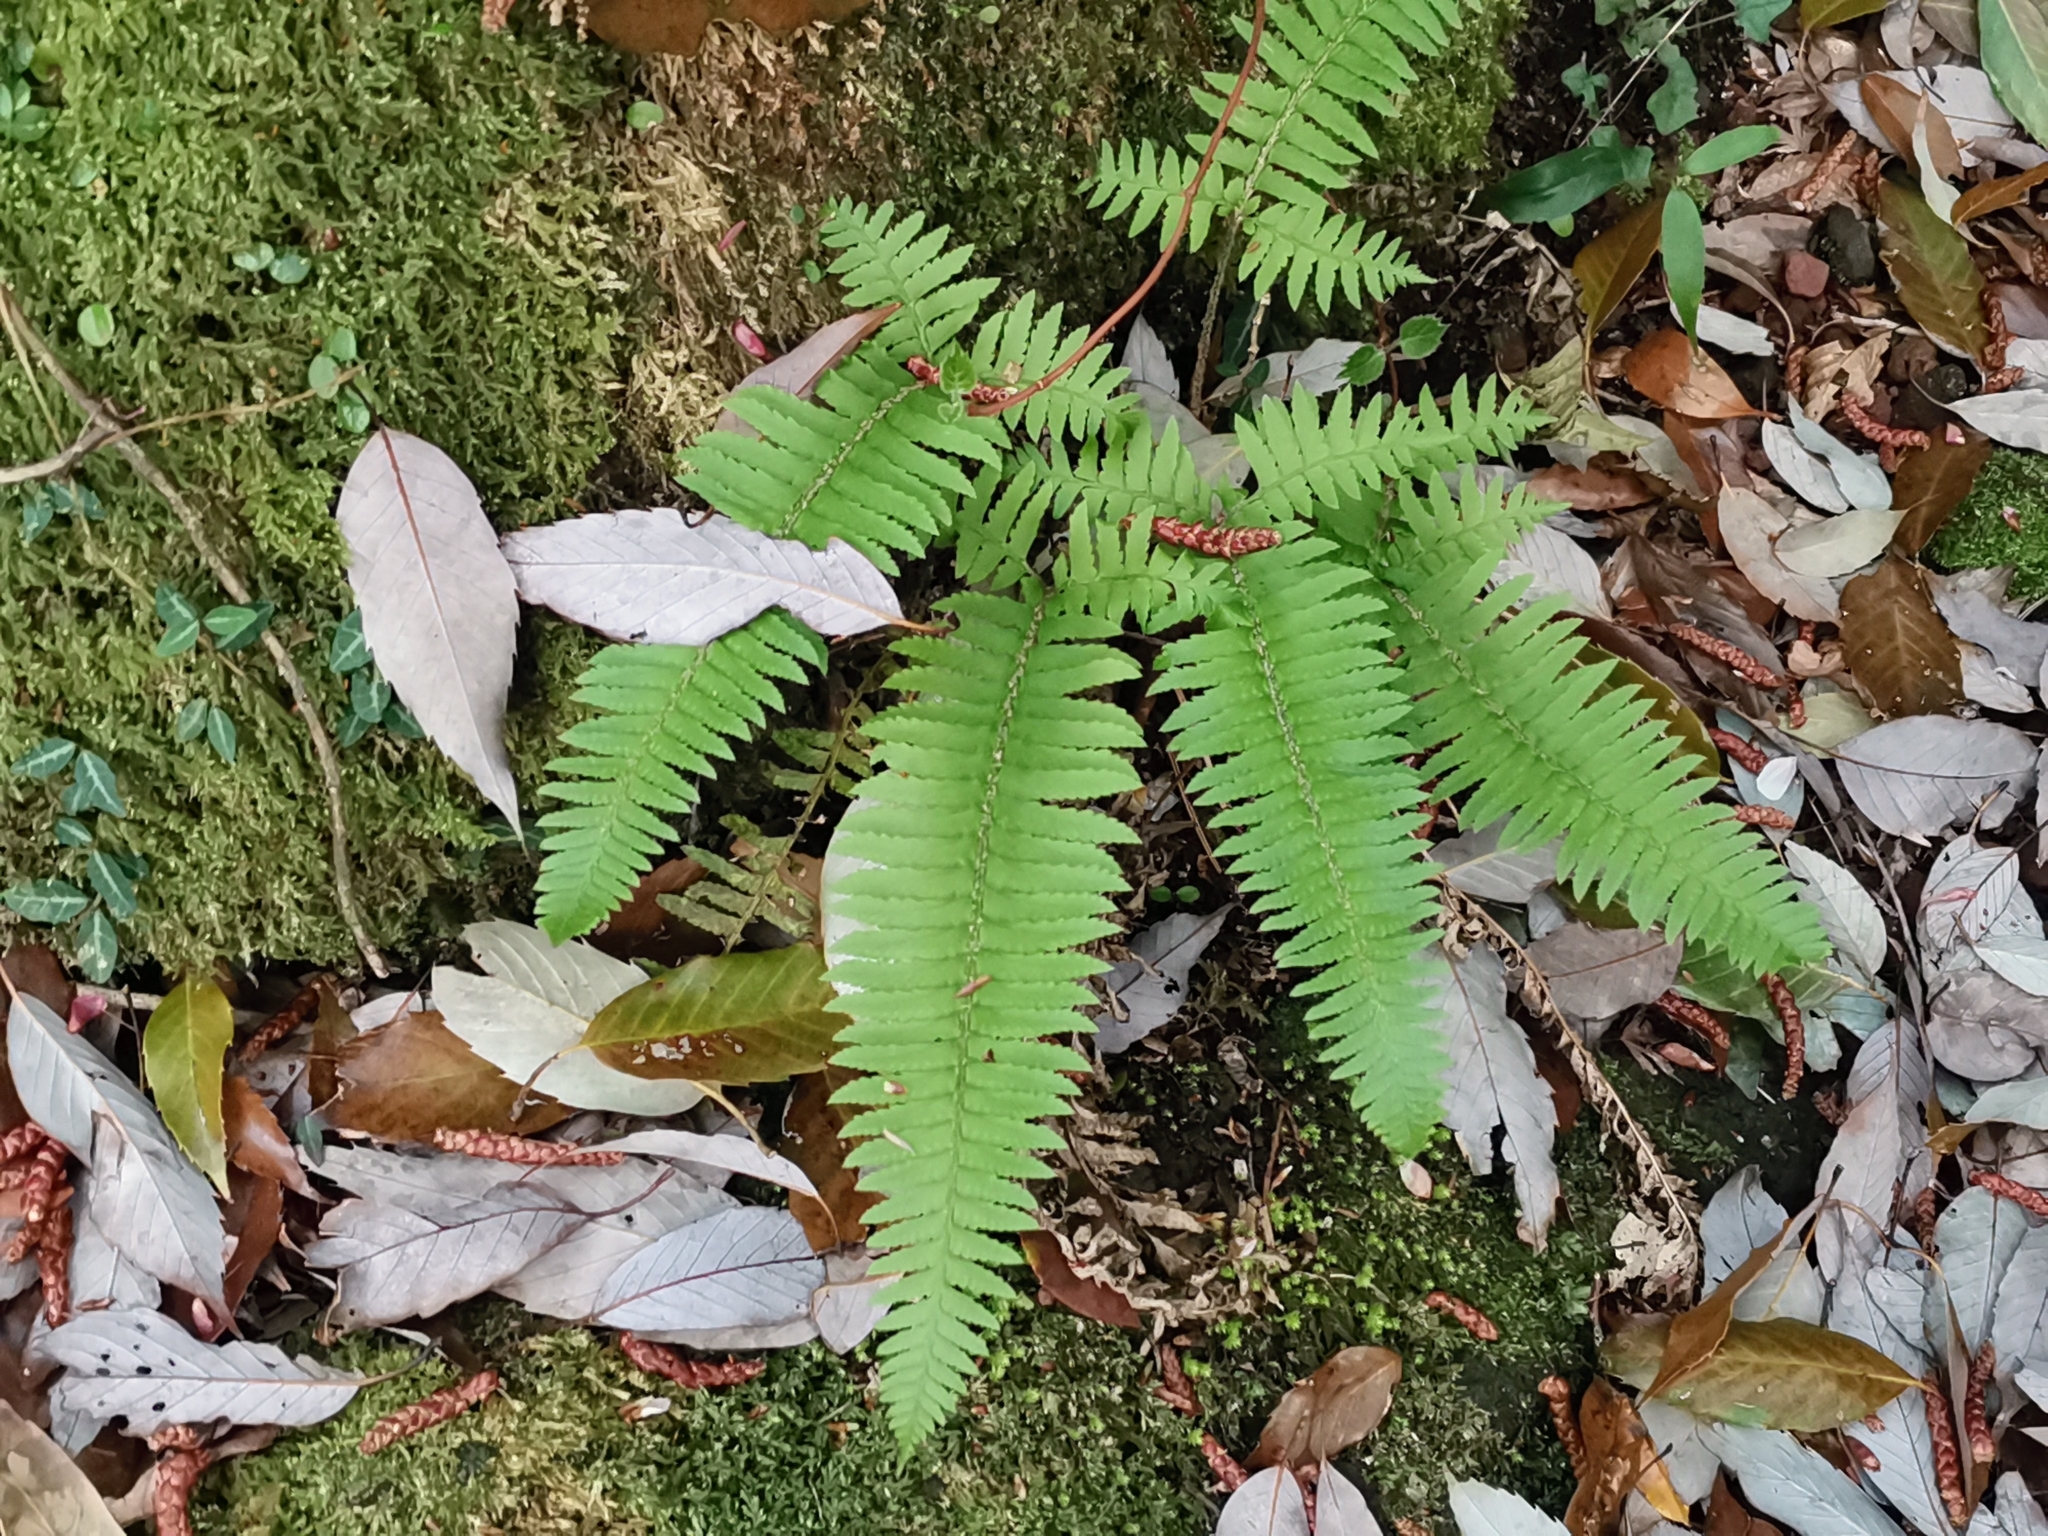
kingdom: Plantae
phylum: Tracheophyta
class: Polypodiopsida
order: Polypodiales
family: Dryopteridaceae
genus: Polystichum
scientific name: Polystichum tripteron
